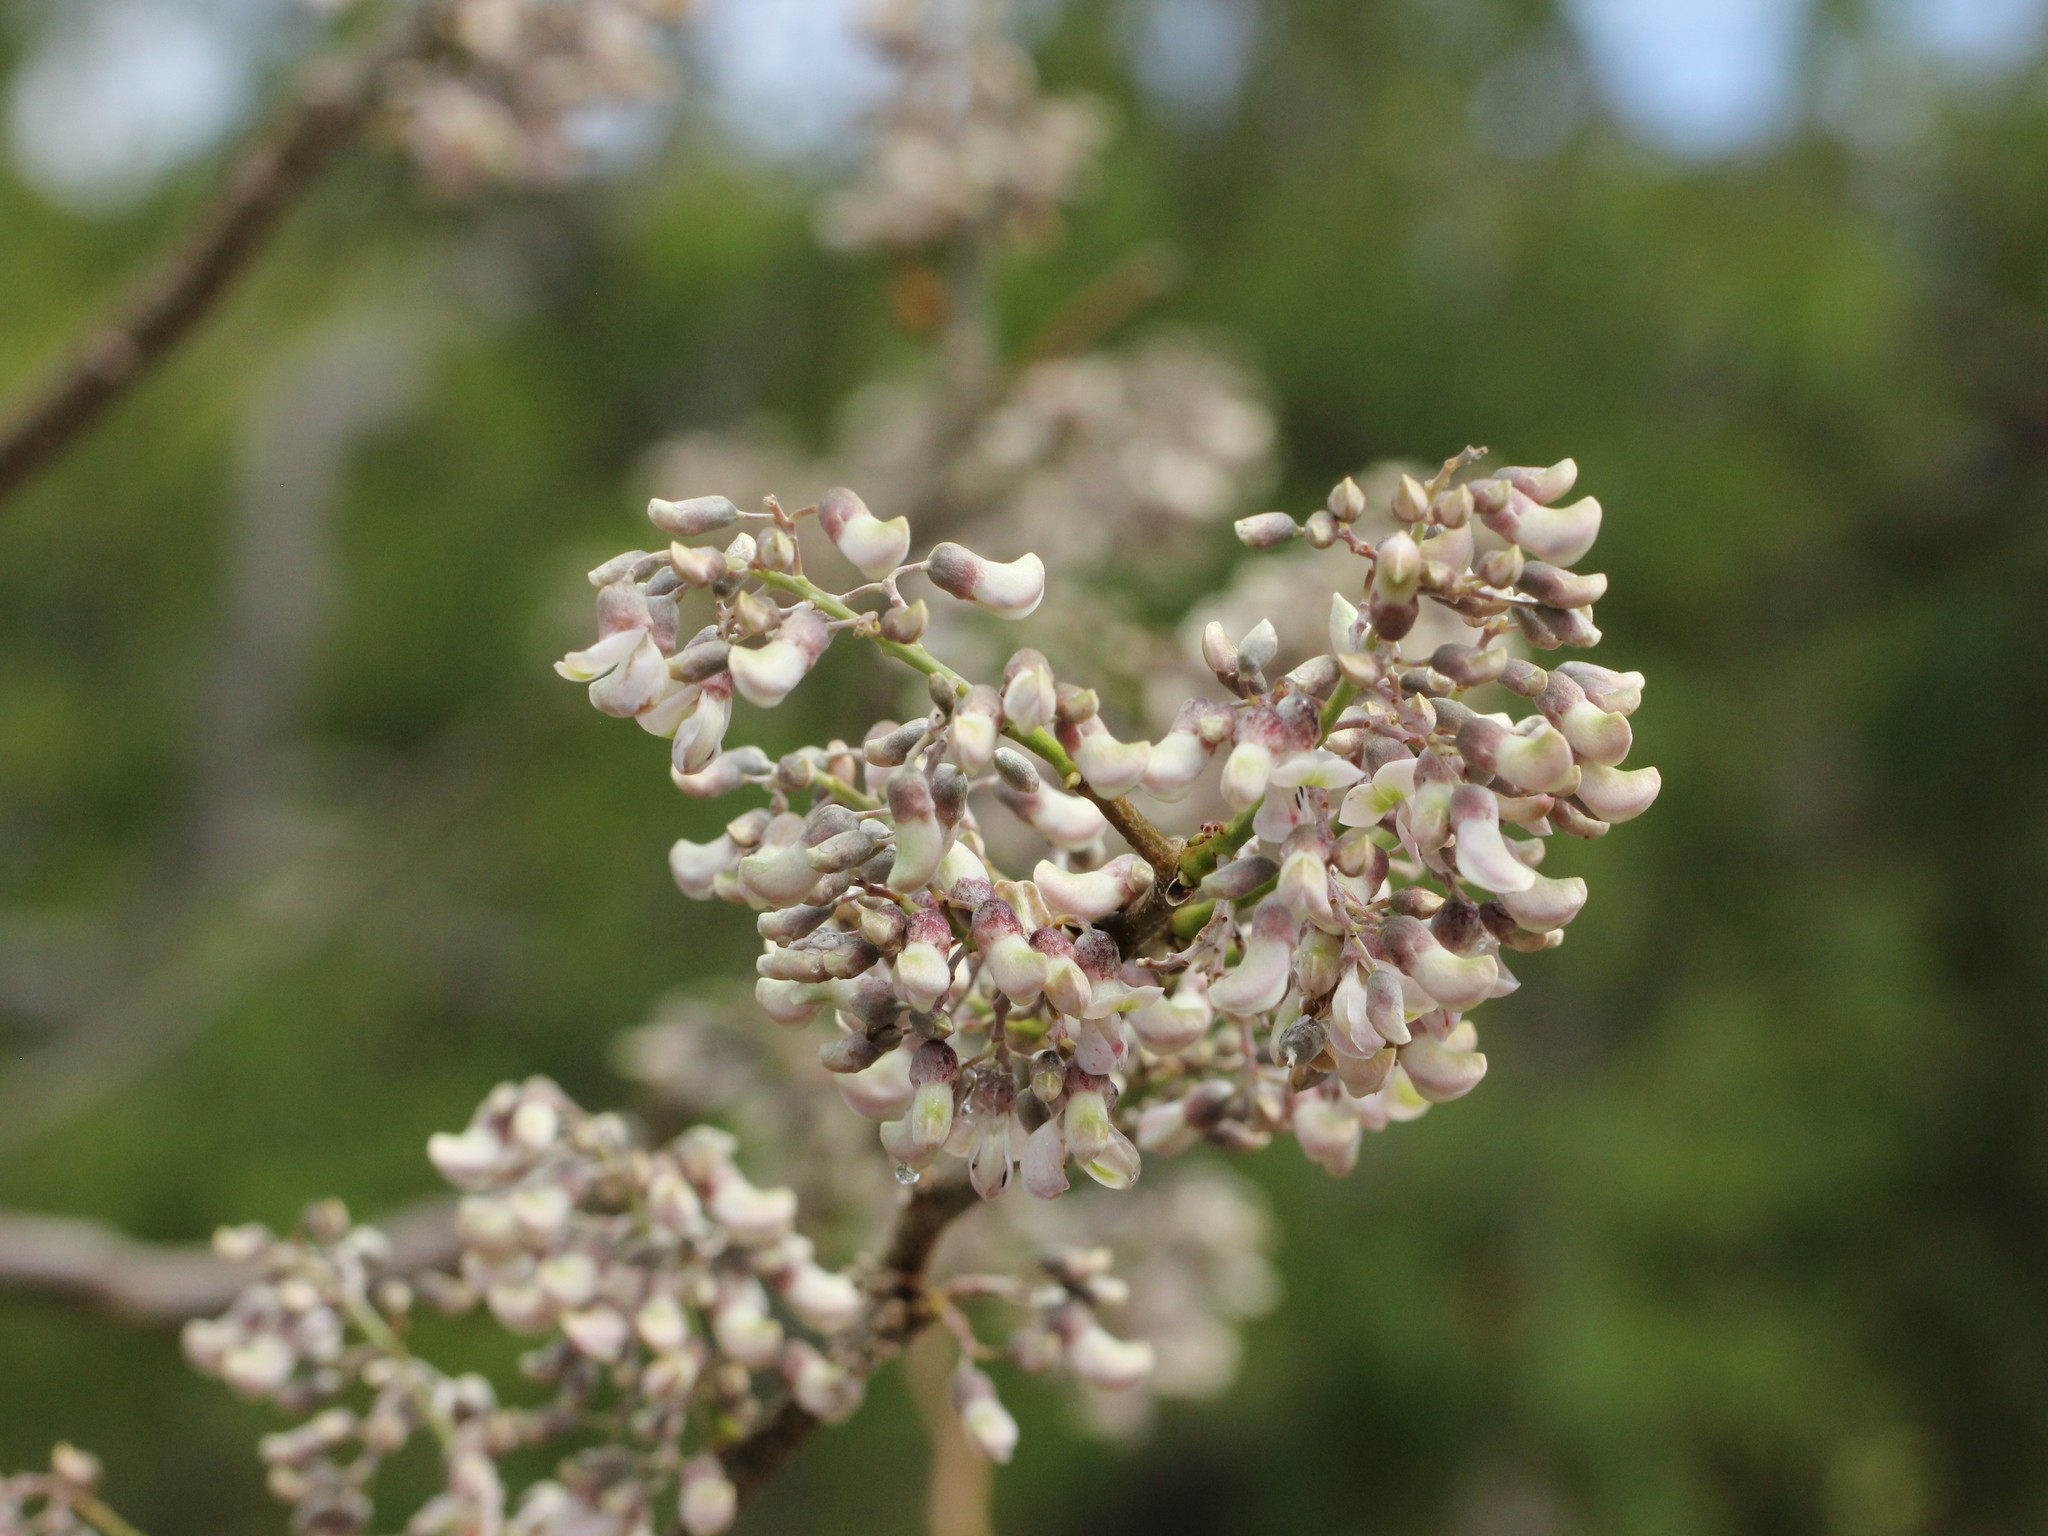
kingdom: Plantae
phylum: Tracheophyta
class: Magnoliopsida
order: Fabales
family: Fabaceae
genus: Piscidia
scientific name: Piscidia piscipula
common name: Florida fishpoison tree
